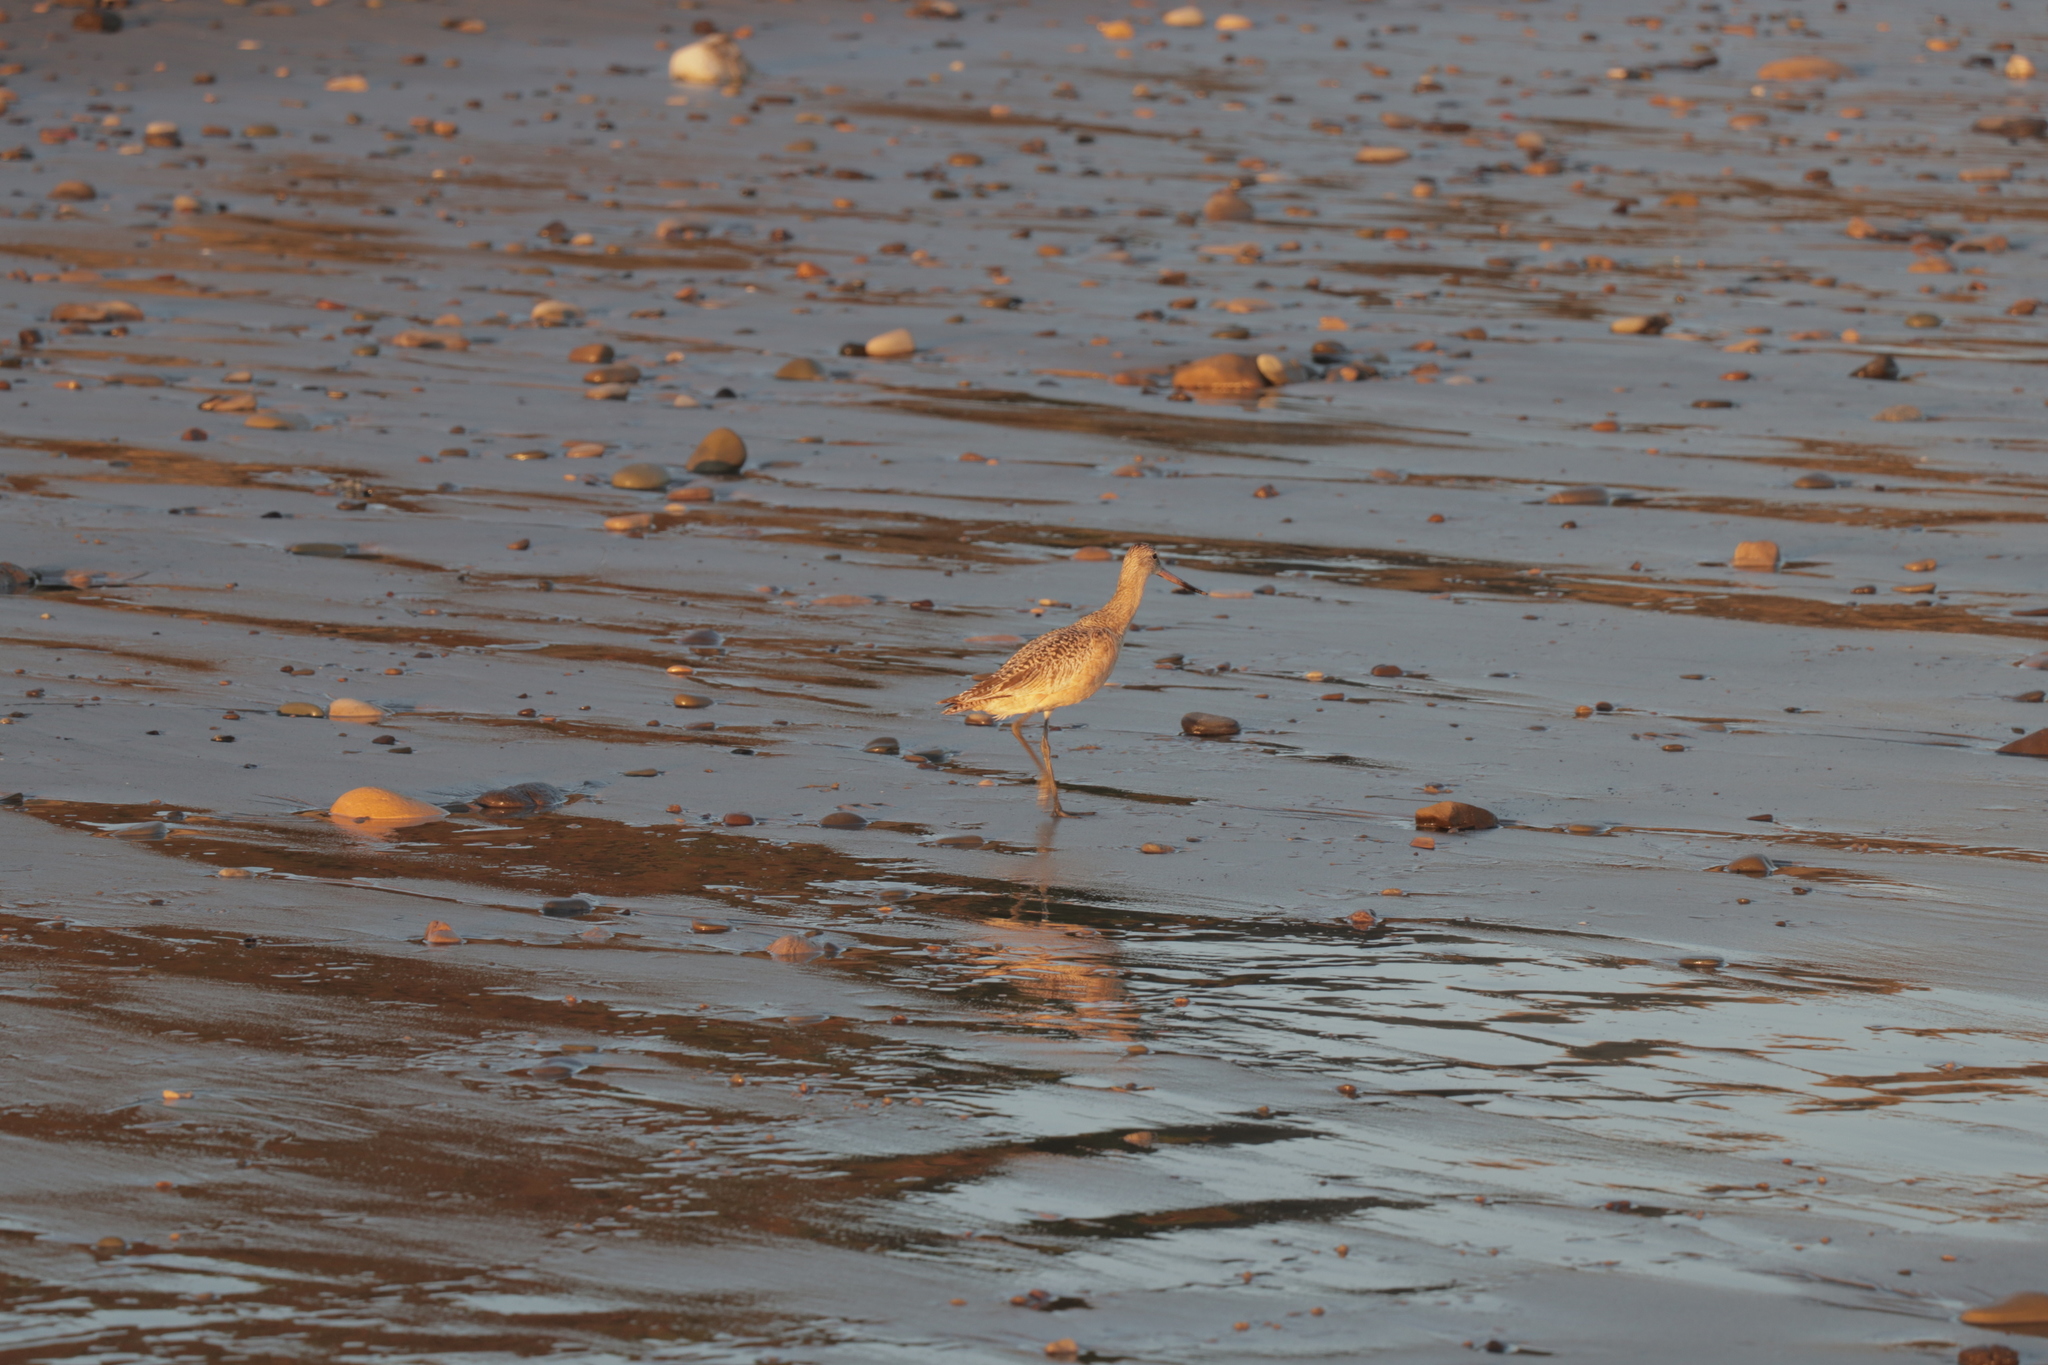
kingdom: Animalia
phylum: Chordata
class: Aves
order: Charadriiformes
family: Scolopacidae
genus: Limosa
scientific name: Limosa fedoa
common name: Marbled godwit
